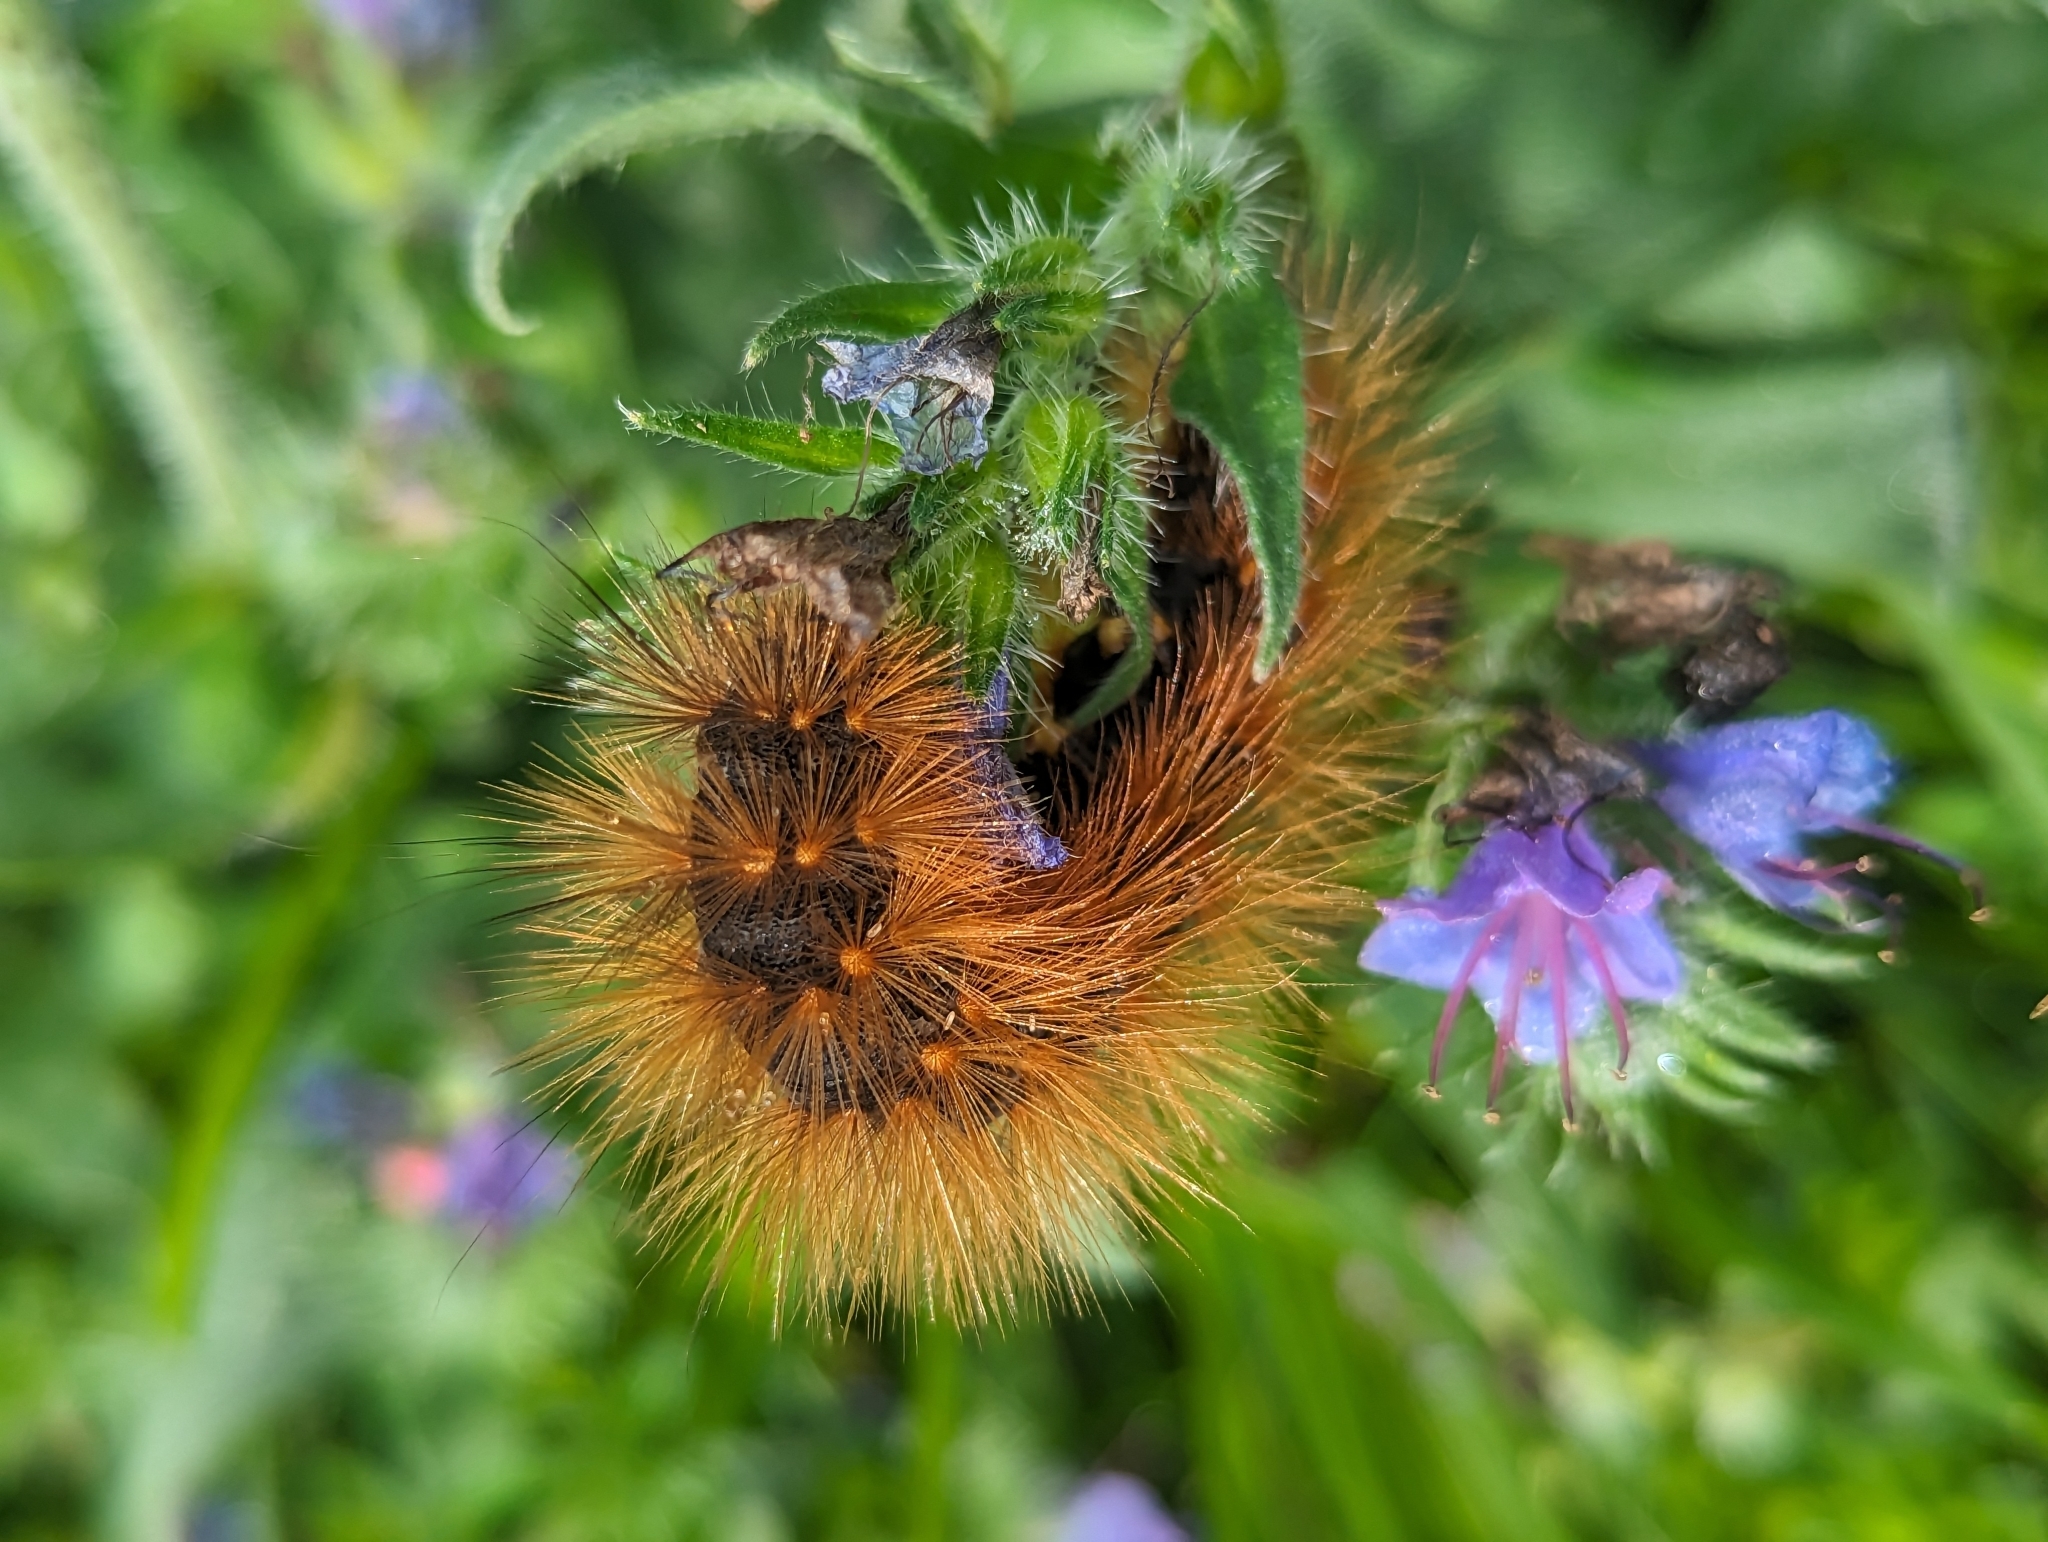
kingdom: Animalia
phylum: Arthropoda
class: Insecta
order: Lepidoptera
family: Erebidae
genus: Estigmene
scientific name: Estigmene acrea
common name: Salt marsh moth
